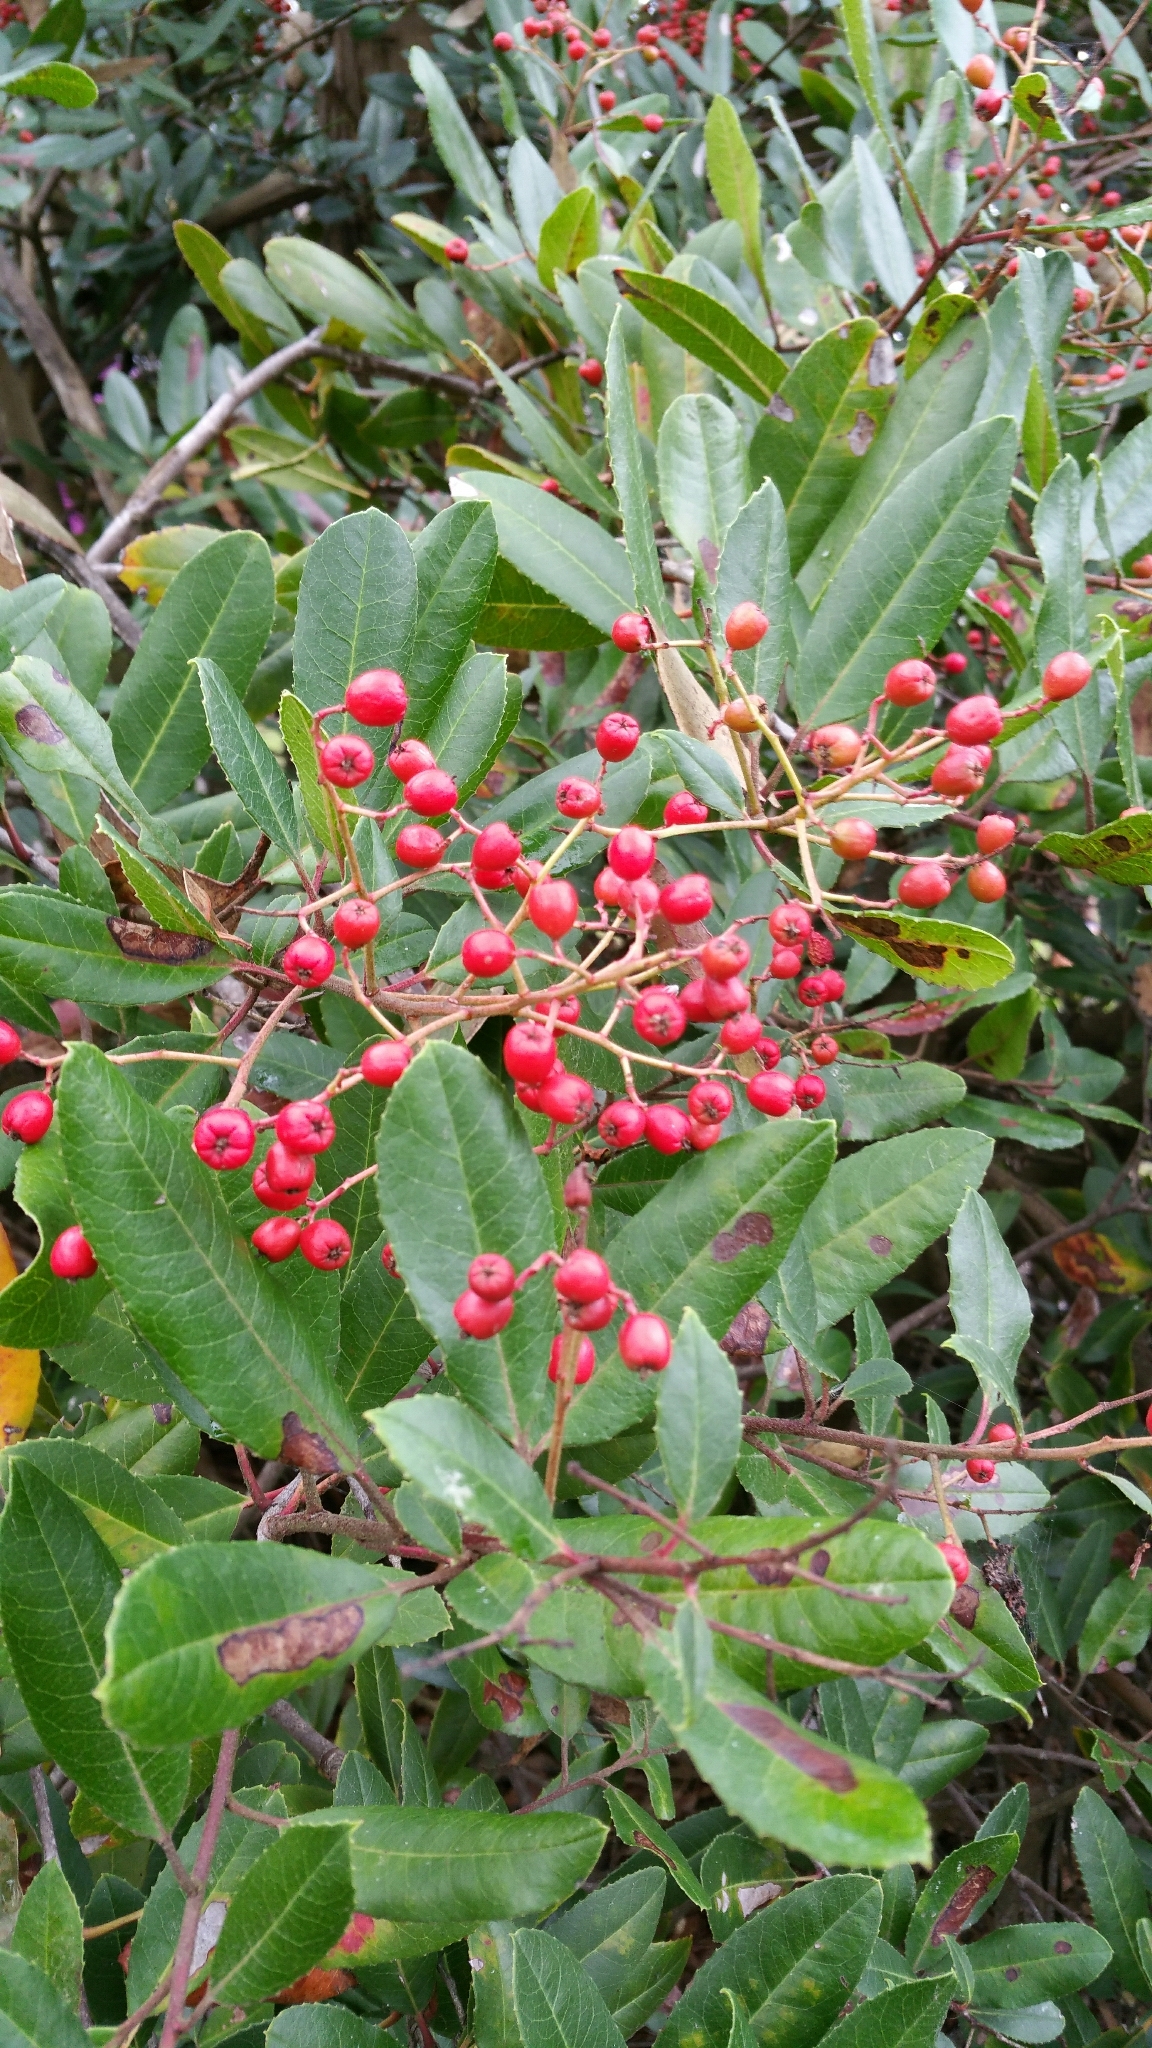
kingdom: Plantae
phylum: Tracheophyta
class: Magnoliopsida
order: Rosales
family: Rosaceae
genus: Heteromeles
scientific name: Heteromeles arbutifolia
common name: California-holly
